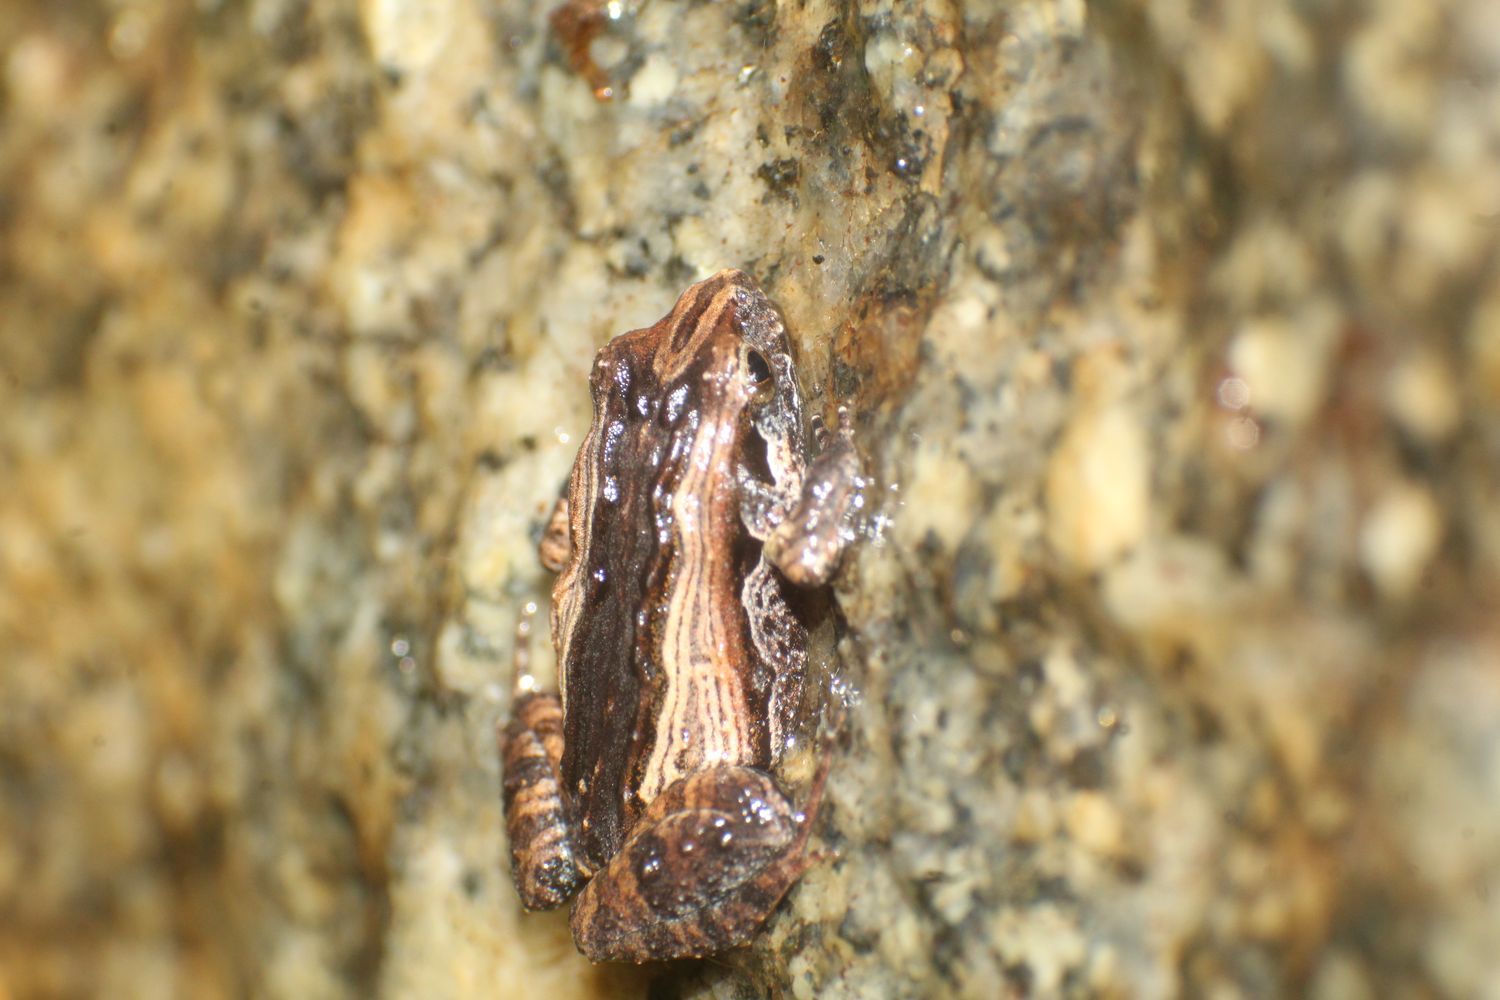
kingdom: Animalia
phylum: Chordata
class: Amphibia
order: Anura
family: Myobatrachidae
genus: Crinia
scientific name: Crinia georgiana
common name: Quacking frog
